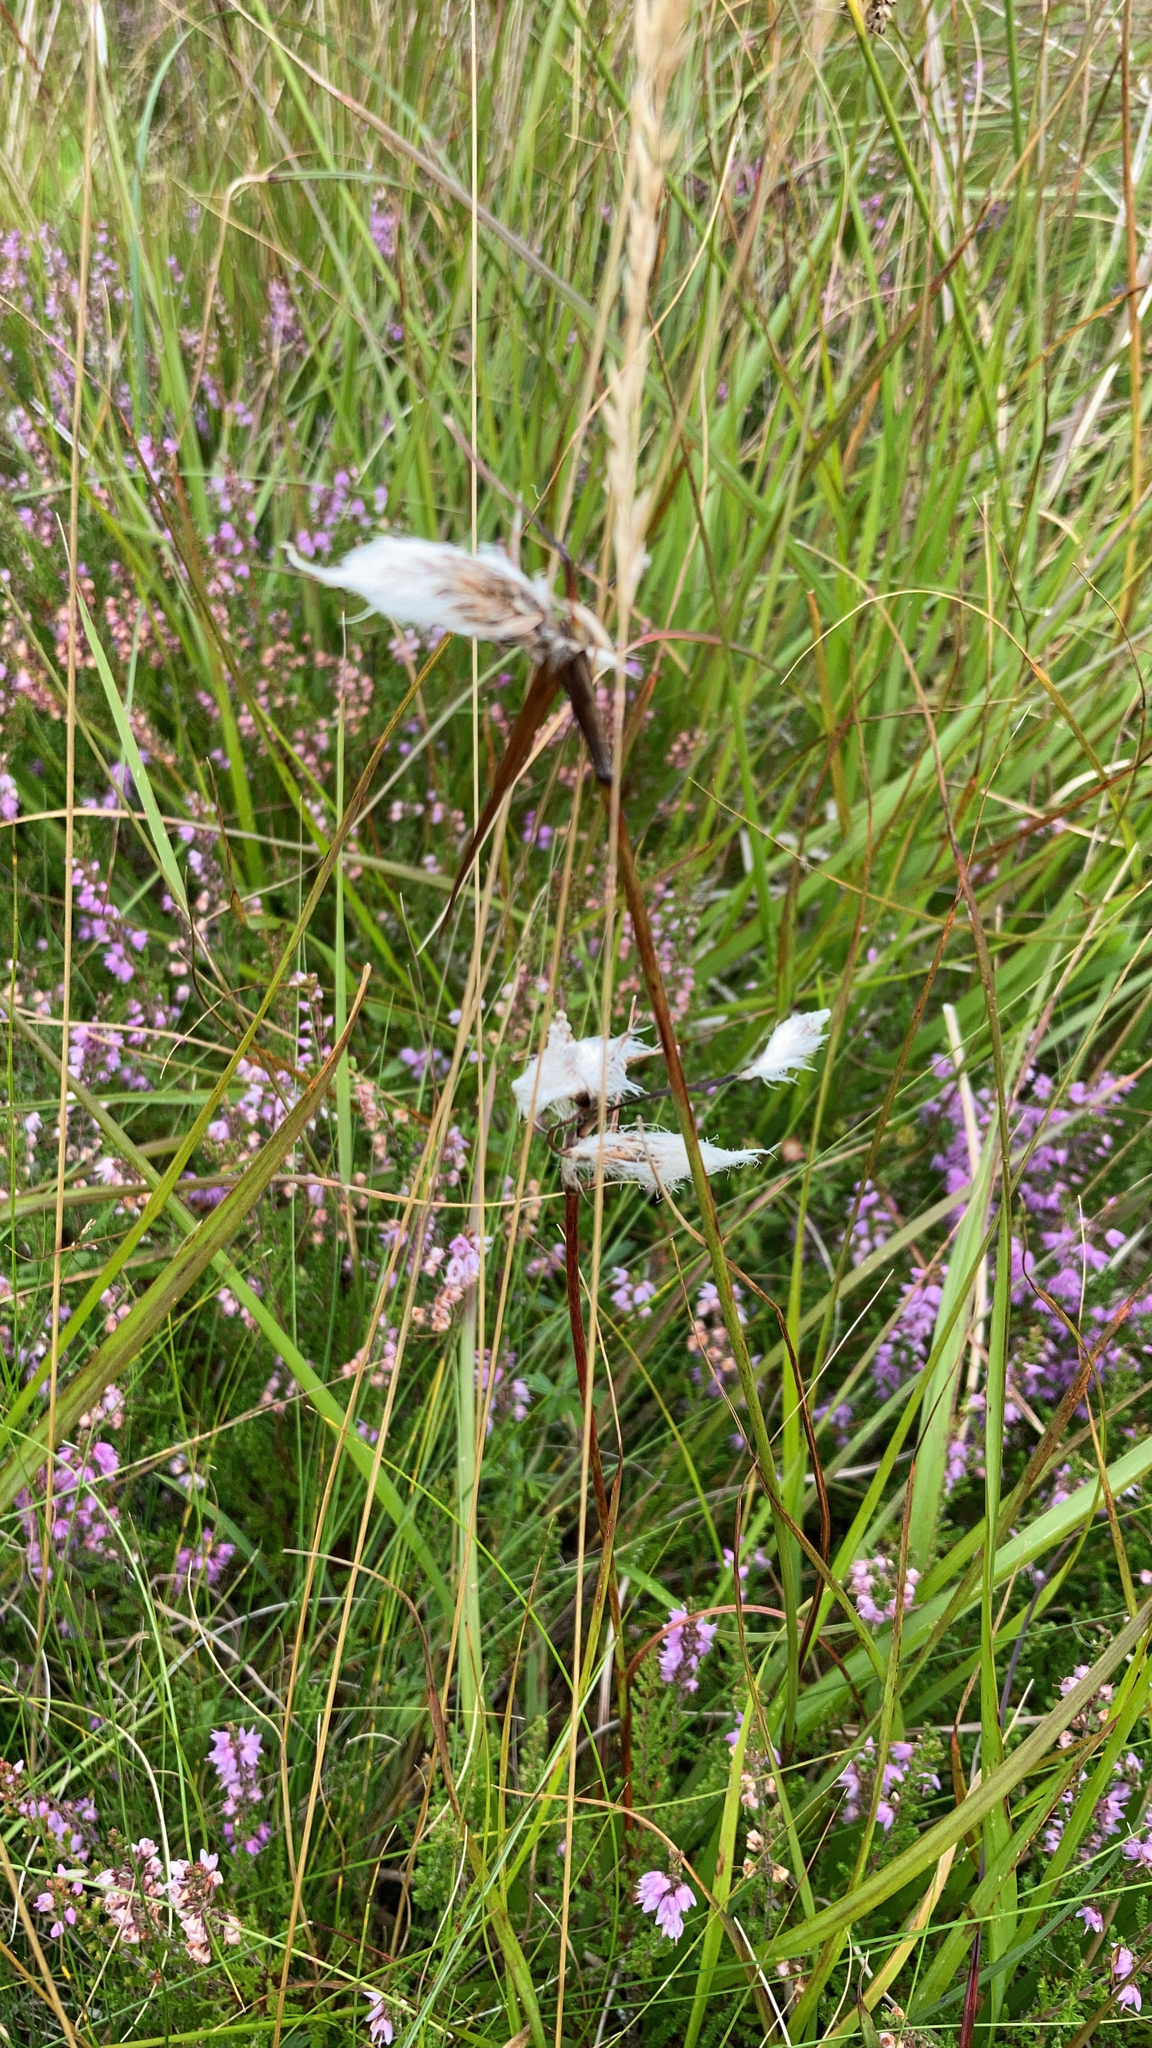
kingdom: Plantae
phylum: Tracheophyta
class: Liliopsida
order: Poales
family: Cyperaceae
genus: Eriophorum
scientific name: Eriophorum angustifolium
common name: Common cottongrass
